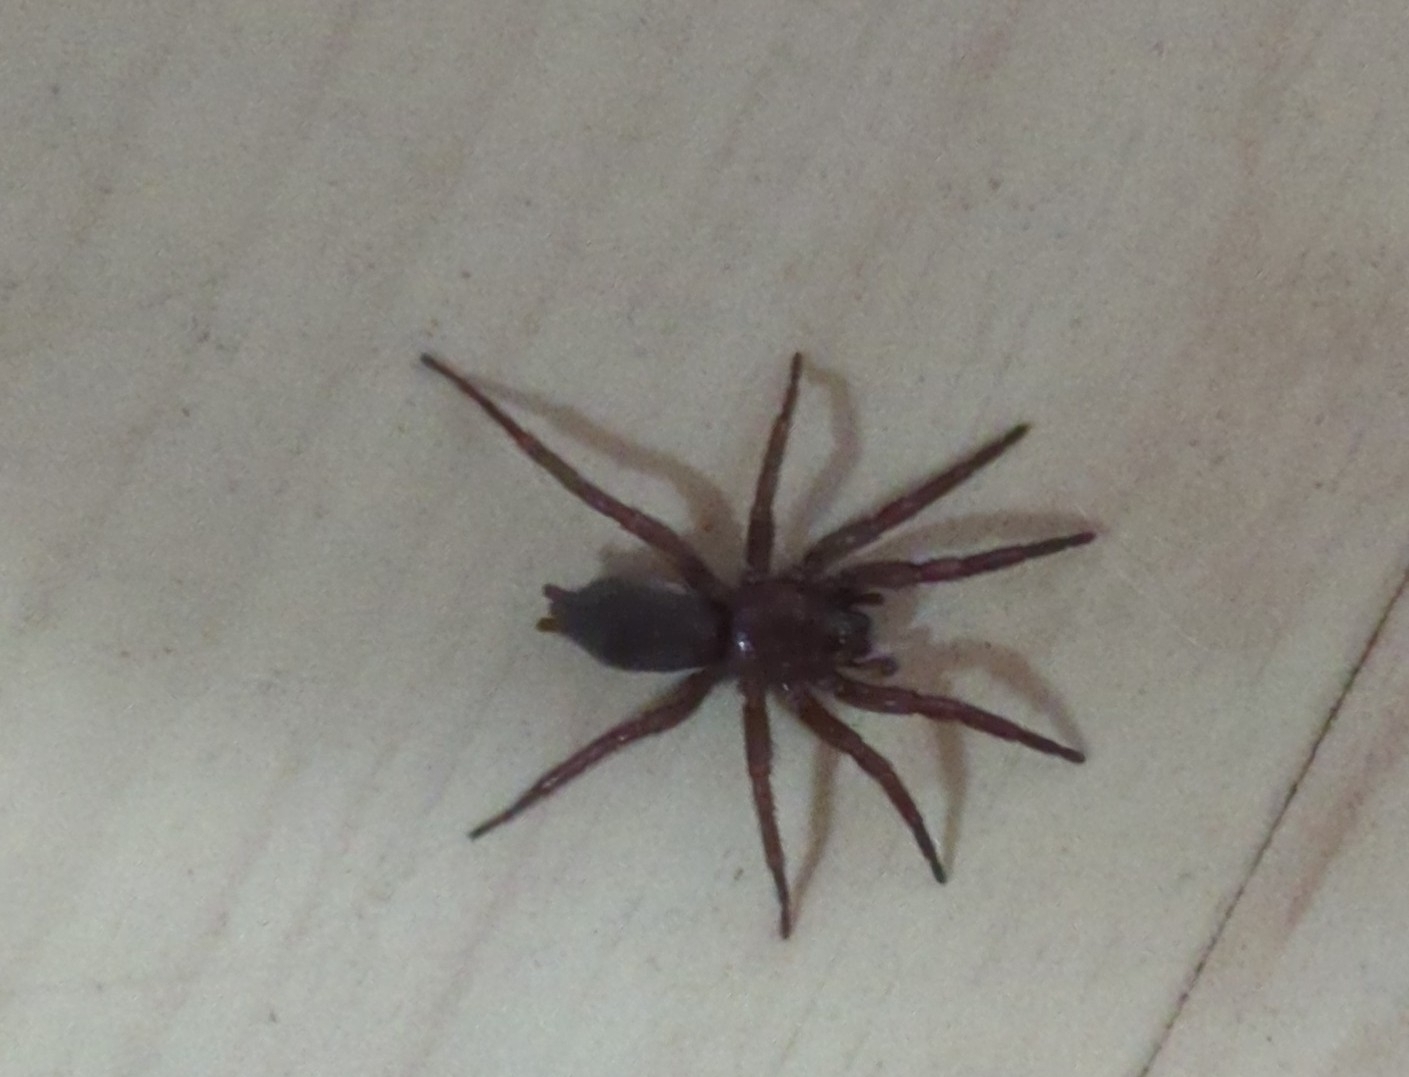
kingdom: Animalia
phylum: Arthropoda
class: Arachnida
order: Araneae
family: Gnaphosidae
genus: Scotophaeus
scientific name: Scotophaeus blackwalli
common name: Mouse spider
